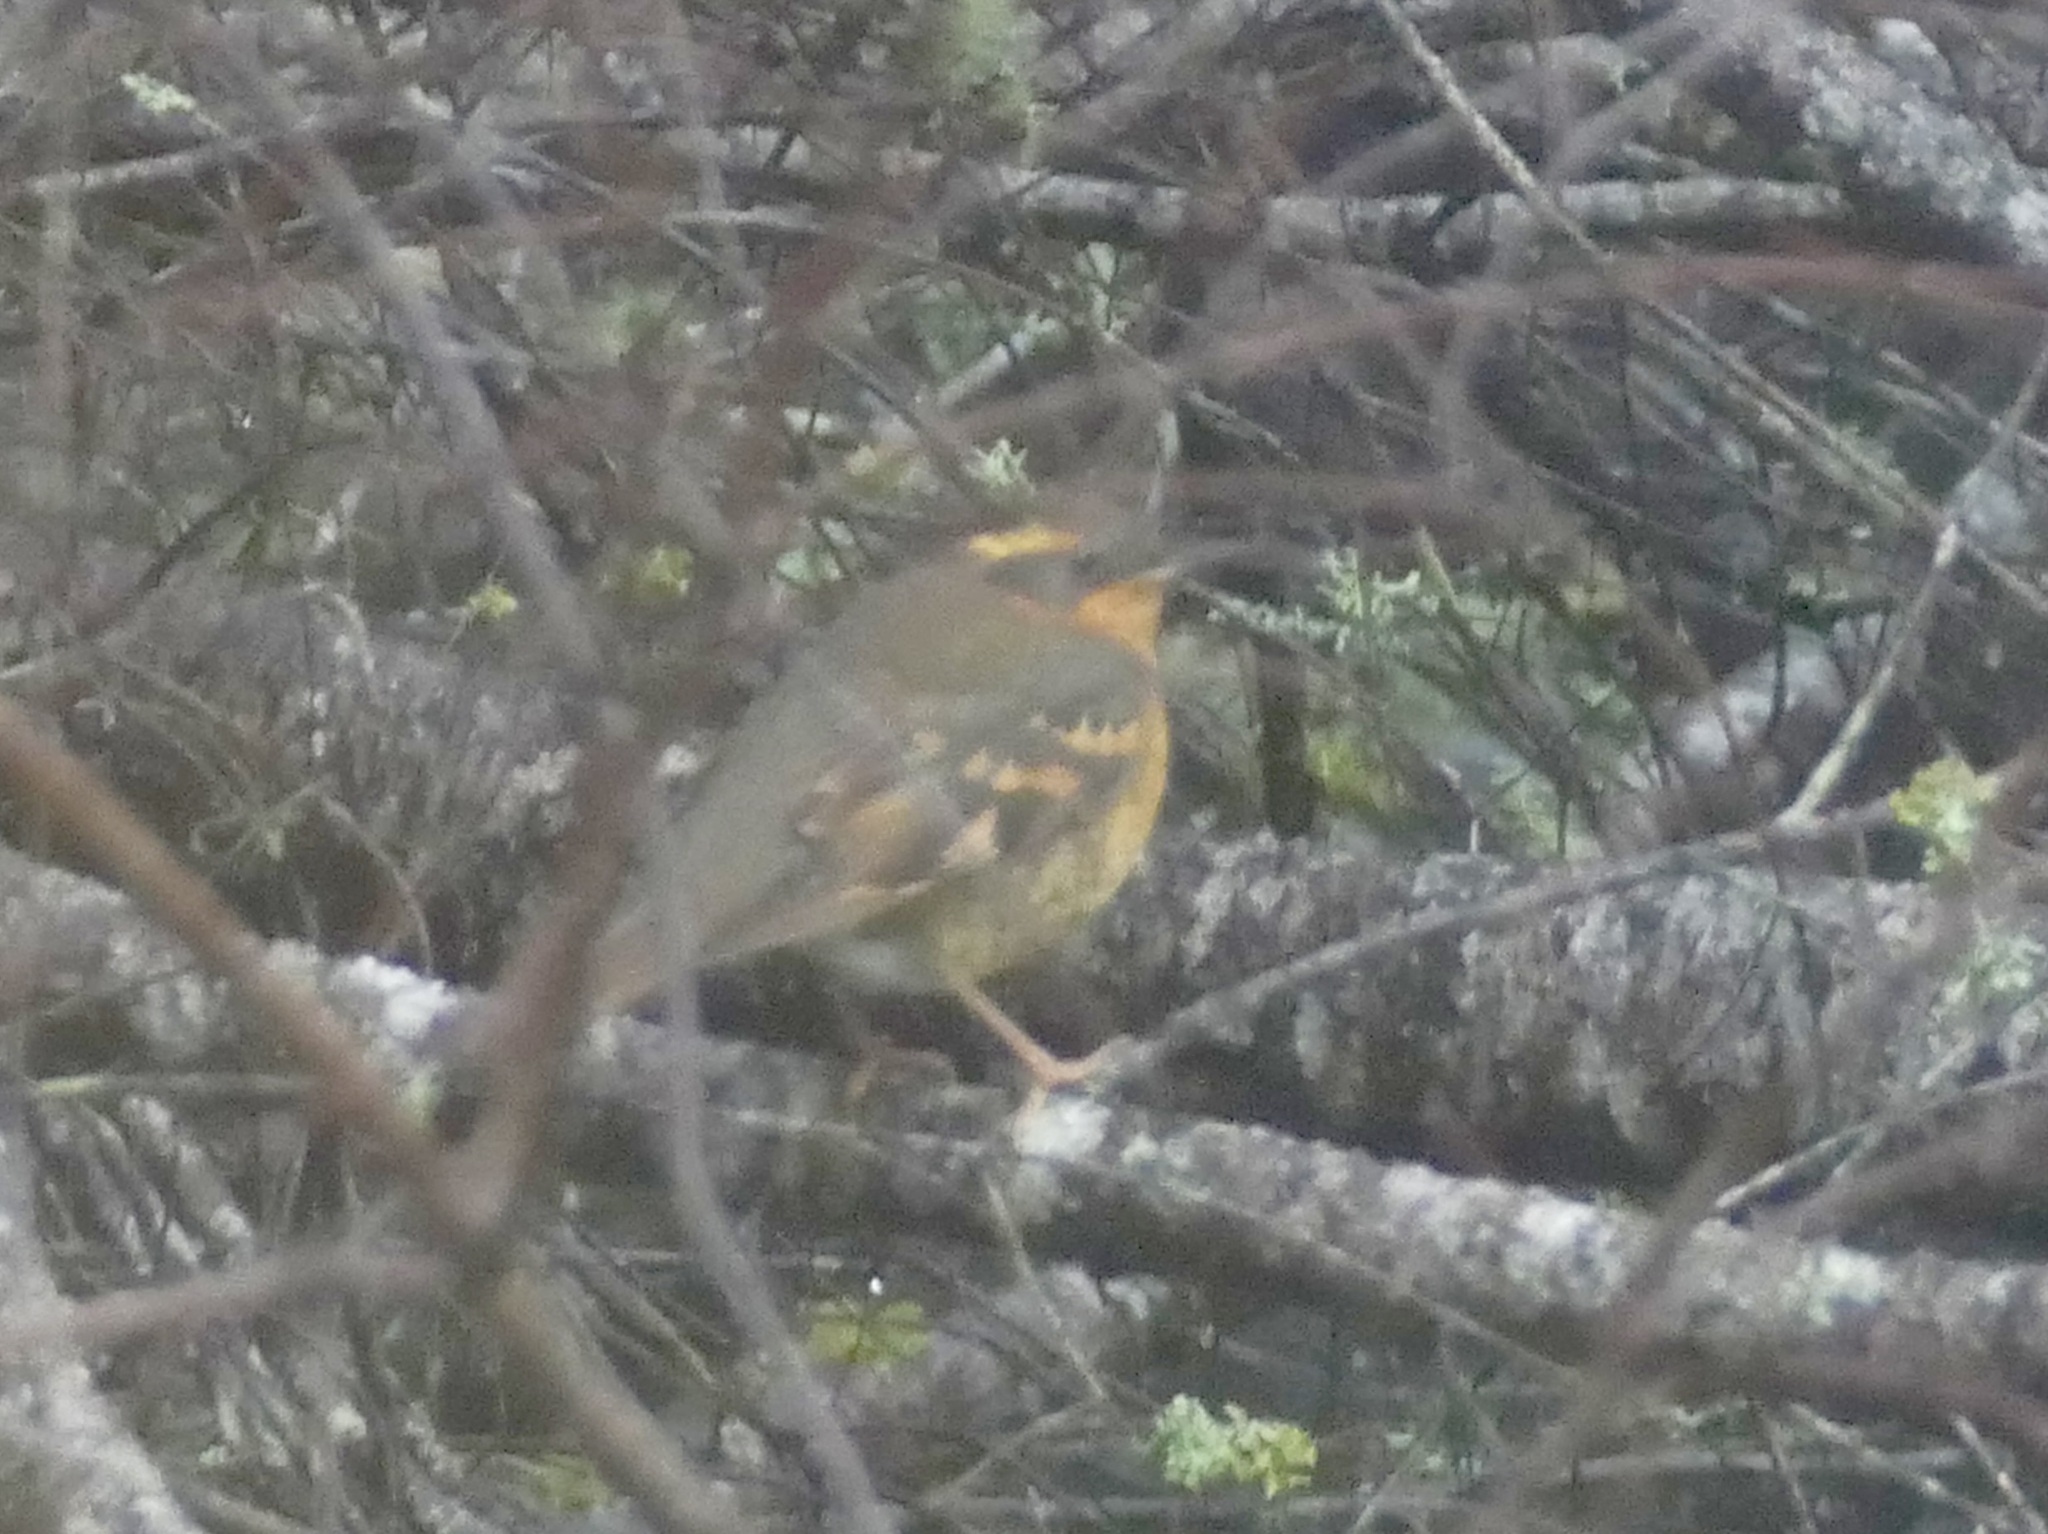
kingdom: Animalia
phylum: Chordata
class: Aves
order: Passeriformes
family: Turdidae
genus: Ixoreus
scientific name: Ixoreus naevius
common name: Varied thrush
